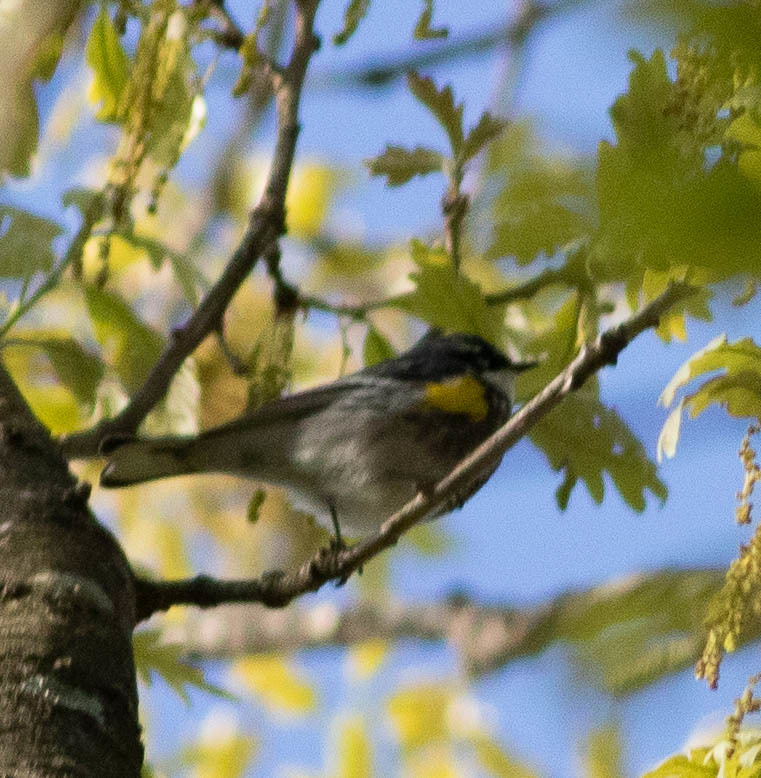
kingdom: Animalia
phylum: Chordata
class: Aves
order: Passeriformes
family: Parulidae
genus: Setophaga
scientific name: Setophaga coronata
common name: Myrtle warbler
